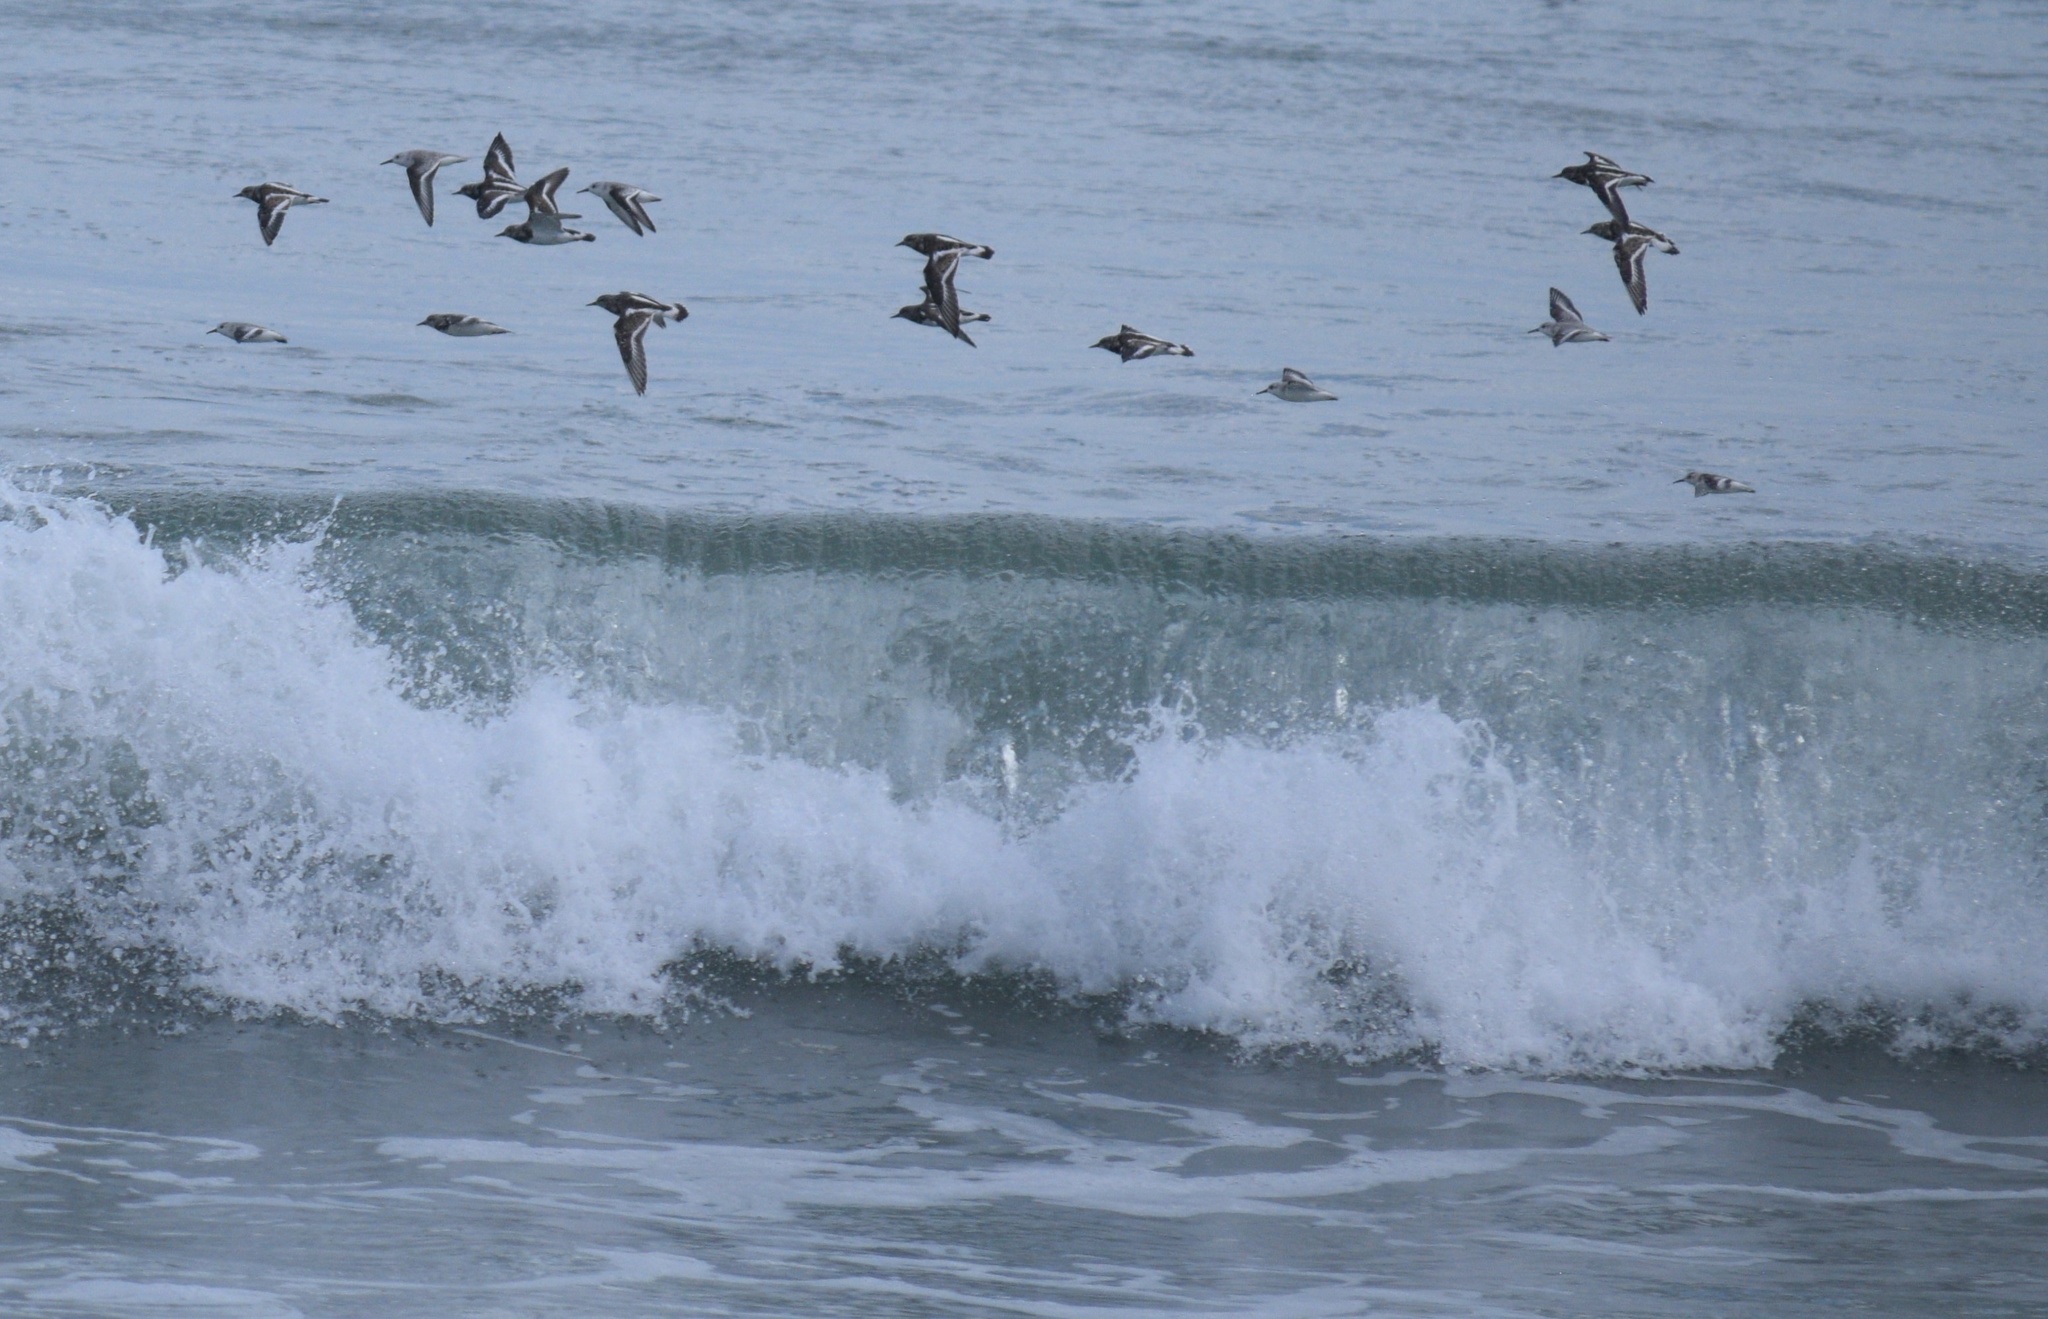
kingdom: Animalia
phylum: Chordata
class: Aves
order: Charadriiformes
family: Scolopacidae
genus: Calidris
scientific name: Calidris alba
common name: Sanderling
